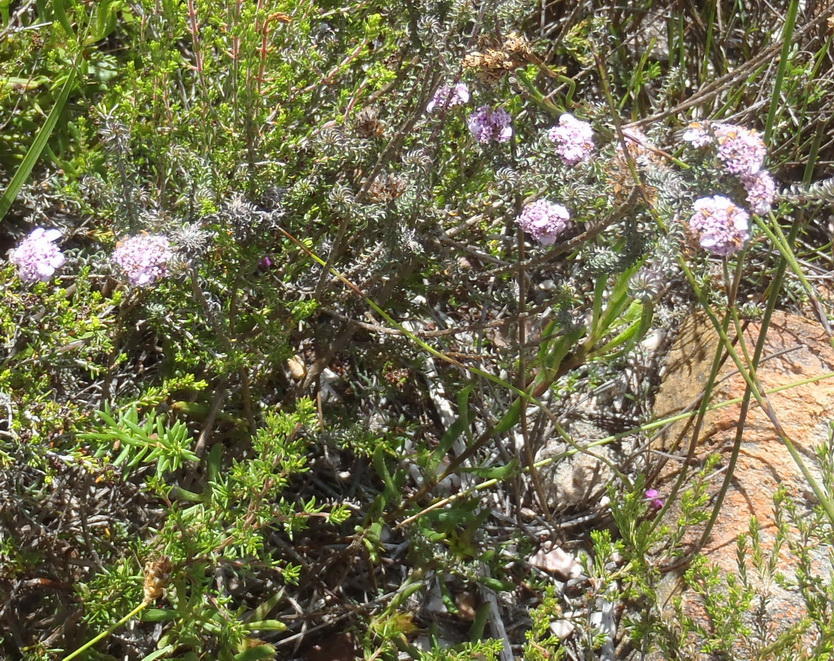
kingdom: Plantae
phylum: Tracheophyta
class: Magnoliopsida
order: Asterales
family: Asteraceae
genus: Disparago
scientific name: Disparago ericoides
